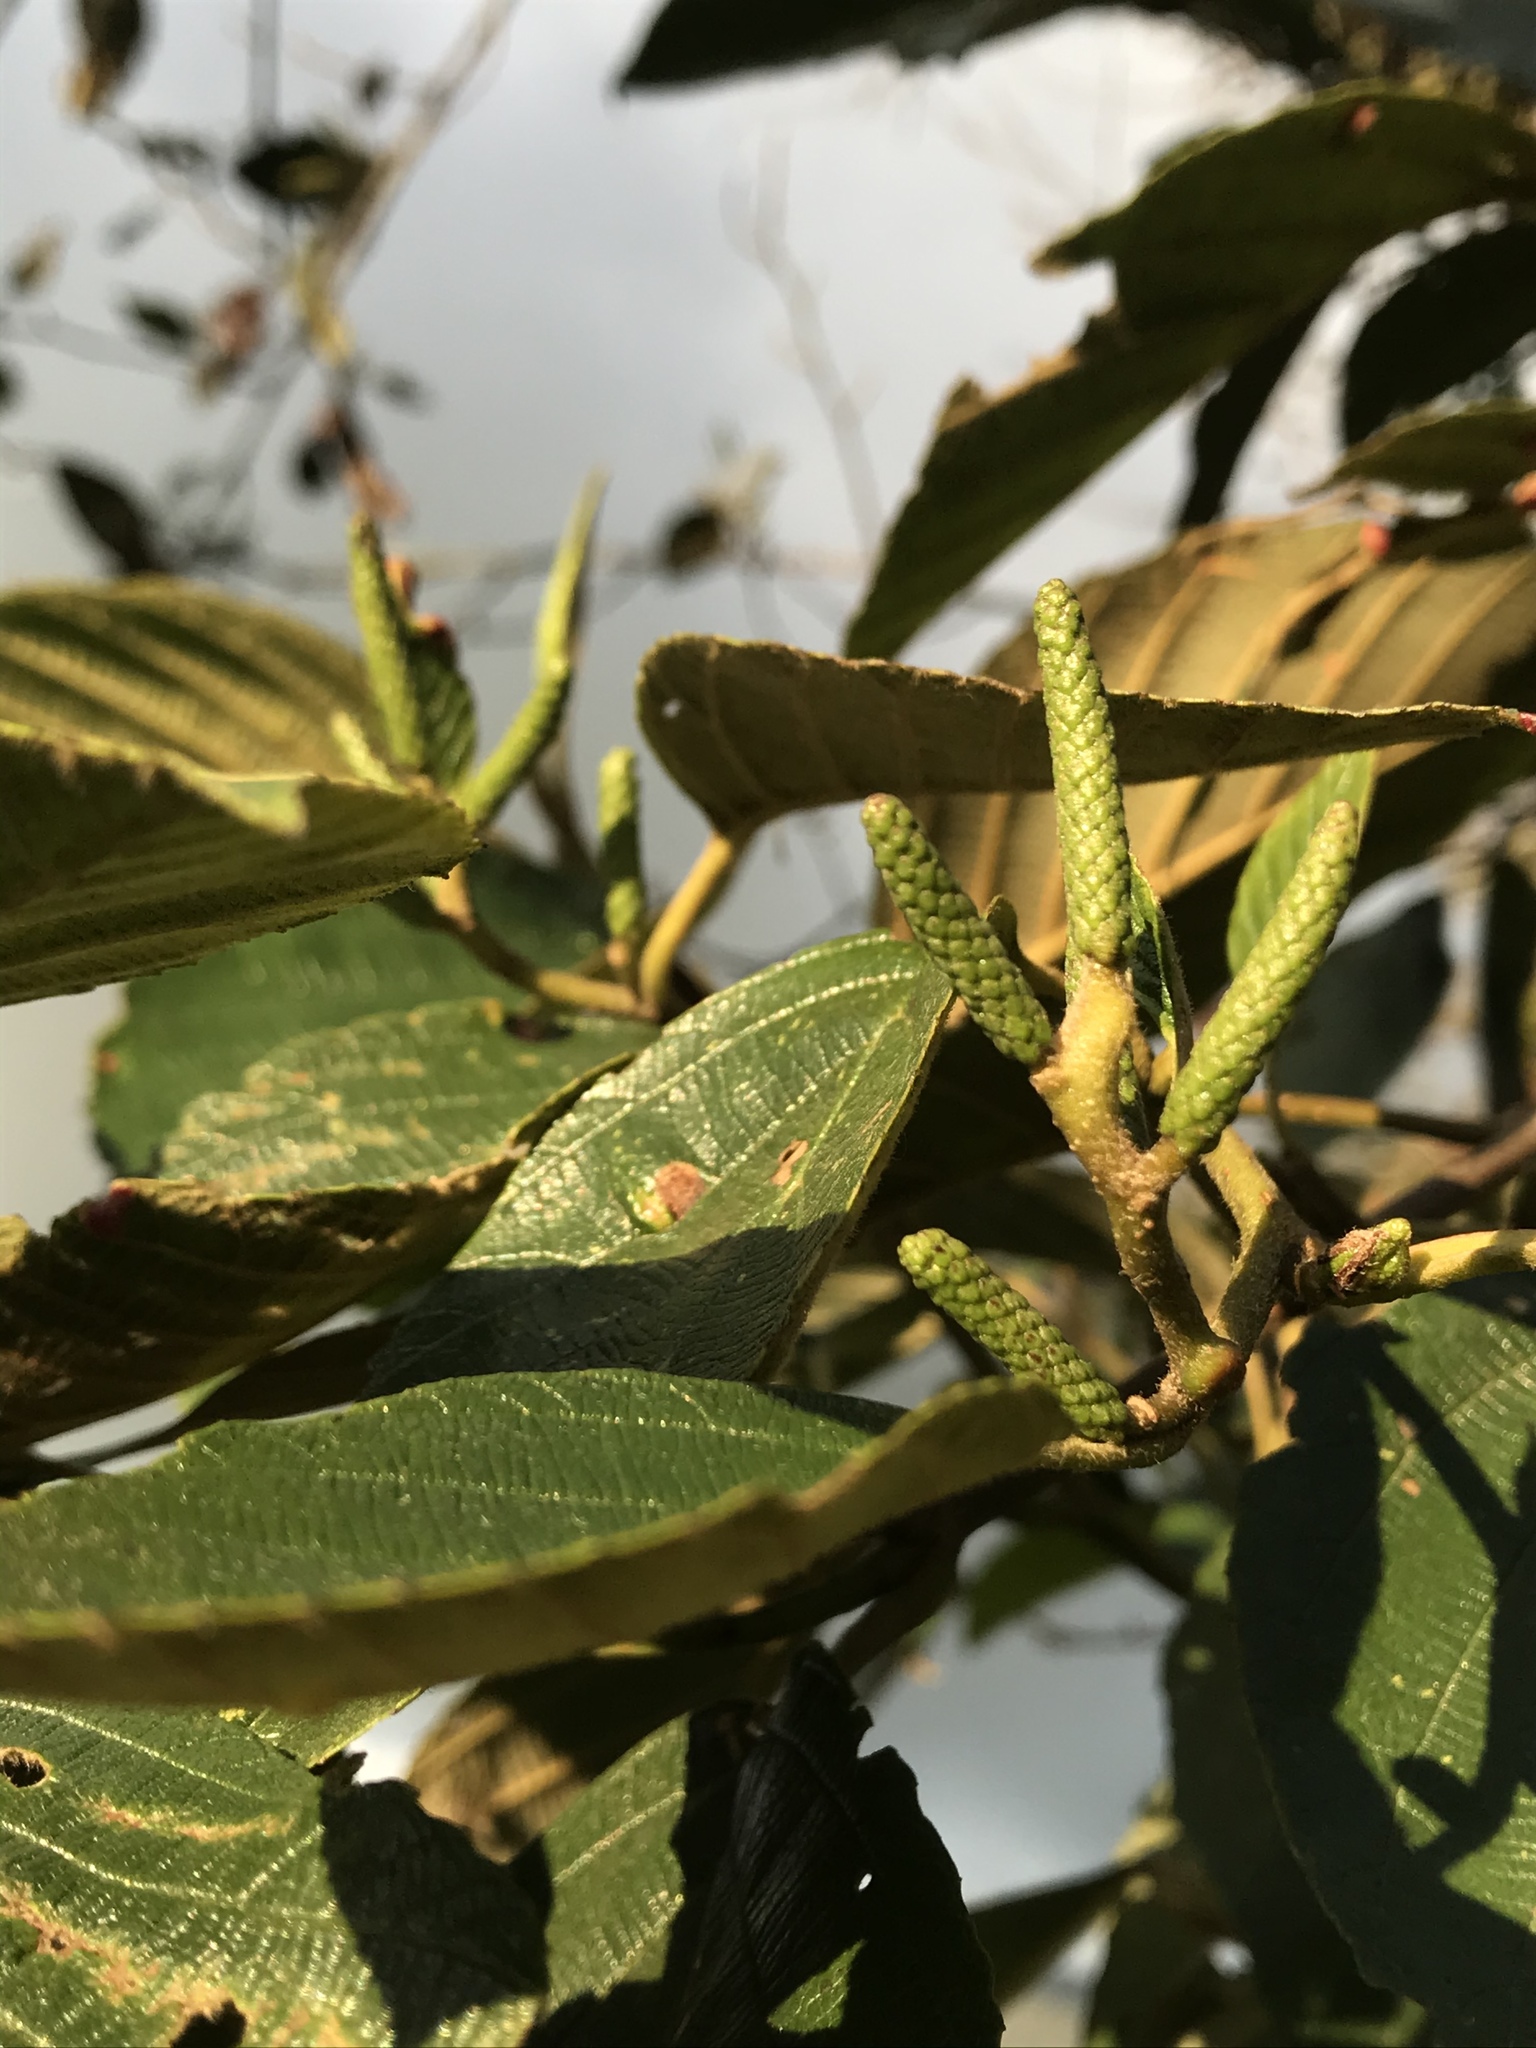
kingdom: Plantae
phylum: Tracheophyta
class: Magnoliopsida
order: Fagales
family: Betulaceae
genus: Alnus
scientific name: Alnus acuminata
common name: Alder
